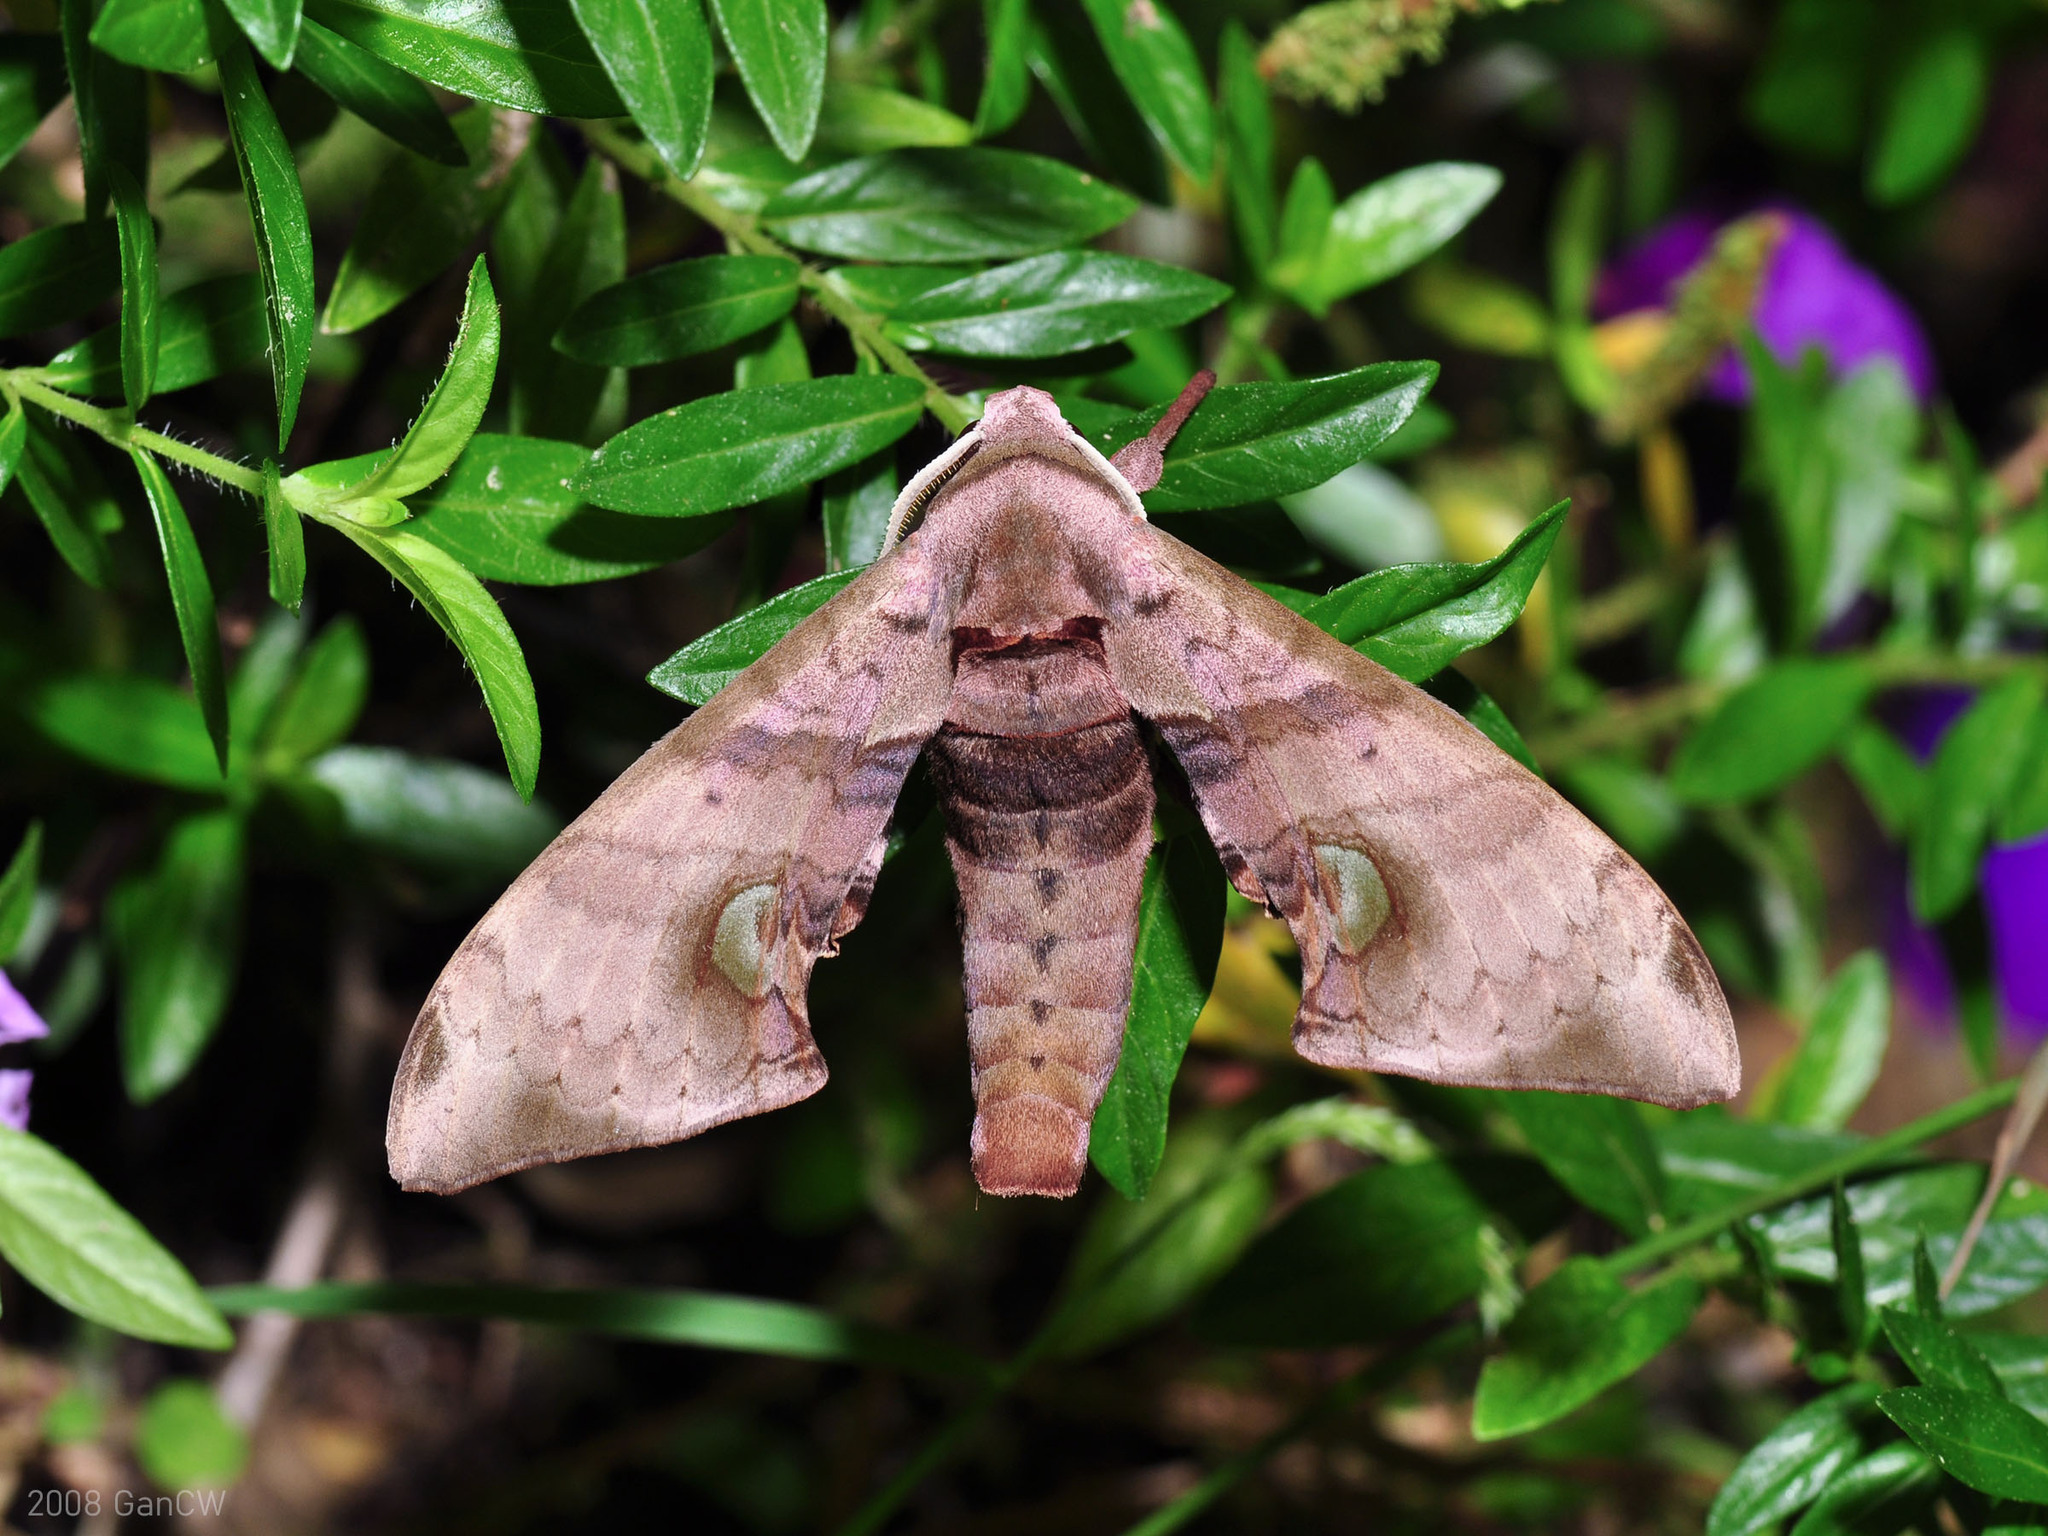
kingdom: Animalia
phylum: Arthropoda
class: Insecta
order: Lepidoptera
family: Sphingidae
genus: Daphnusa
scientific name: Daphnusa ocellaris
